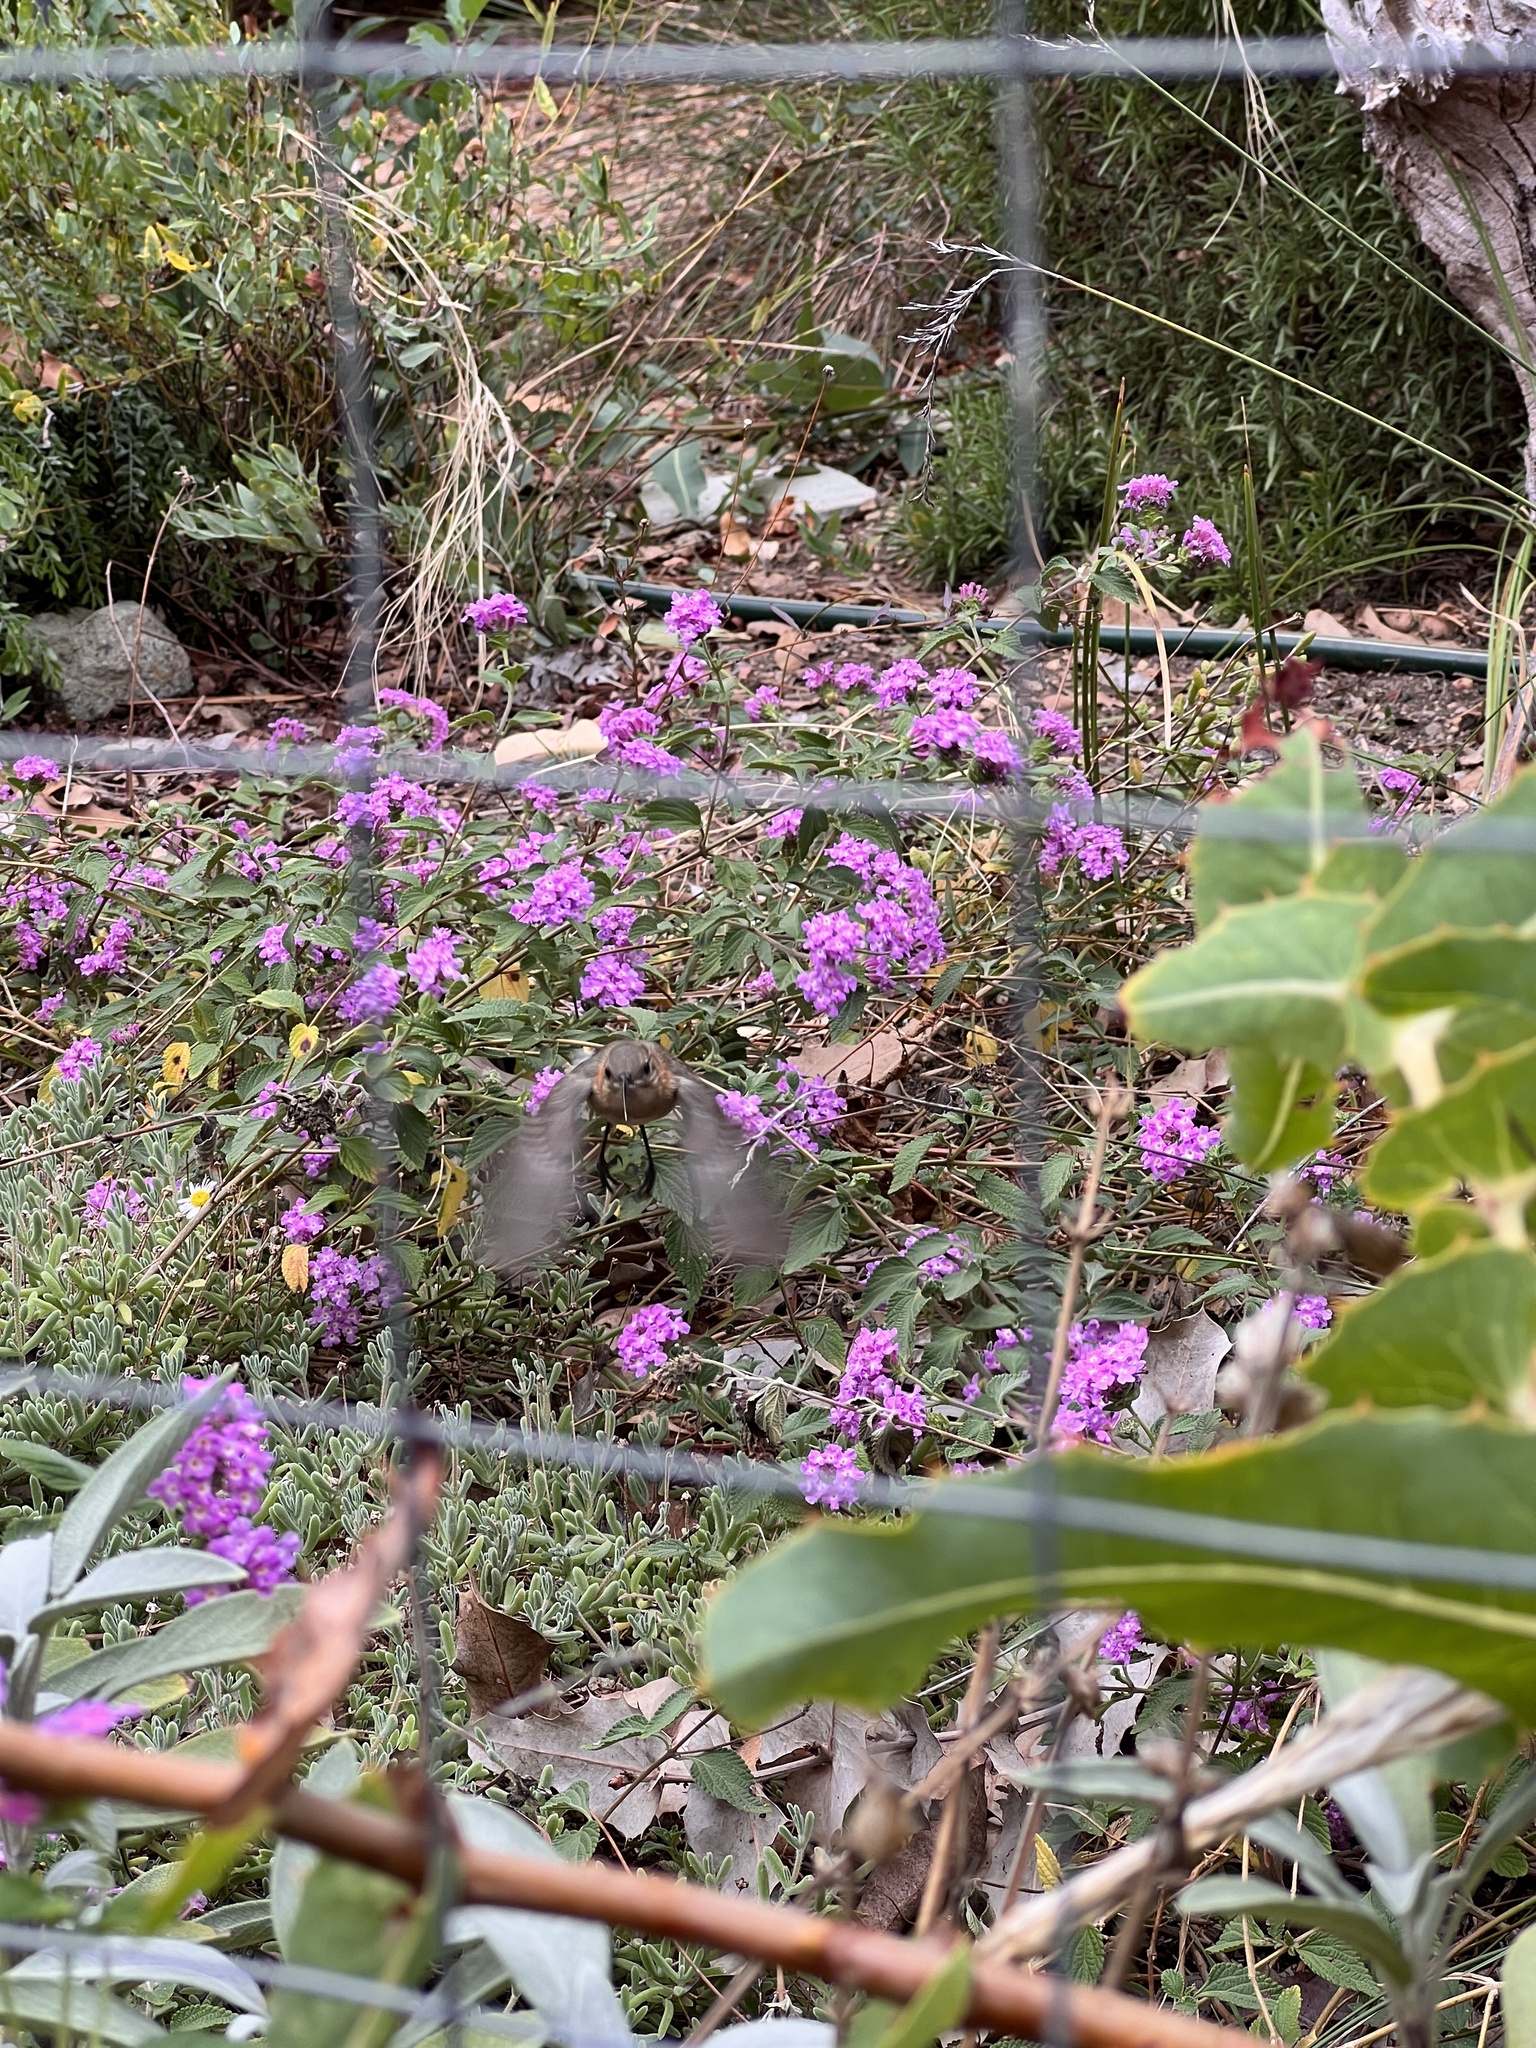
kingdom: Animalia
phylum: Chordata
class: Aves
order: Passeriformes
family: Meliphagidae
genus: Acanthorhynchus
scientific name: Acanthorhynchus superciliosus
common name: Western spinebill
